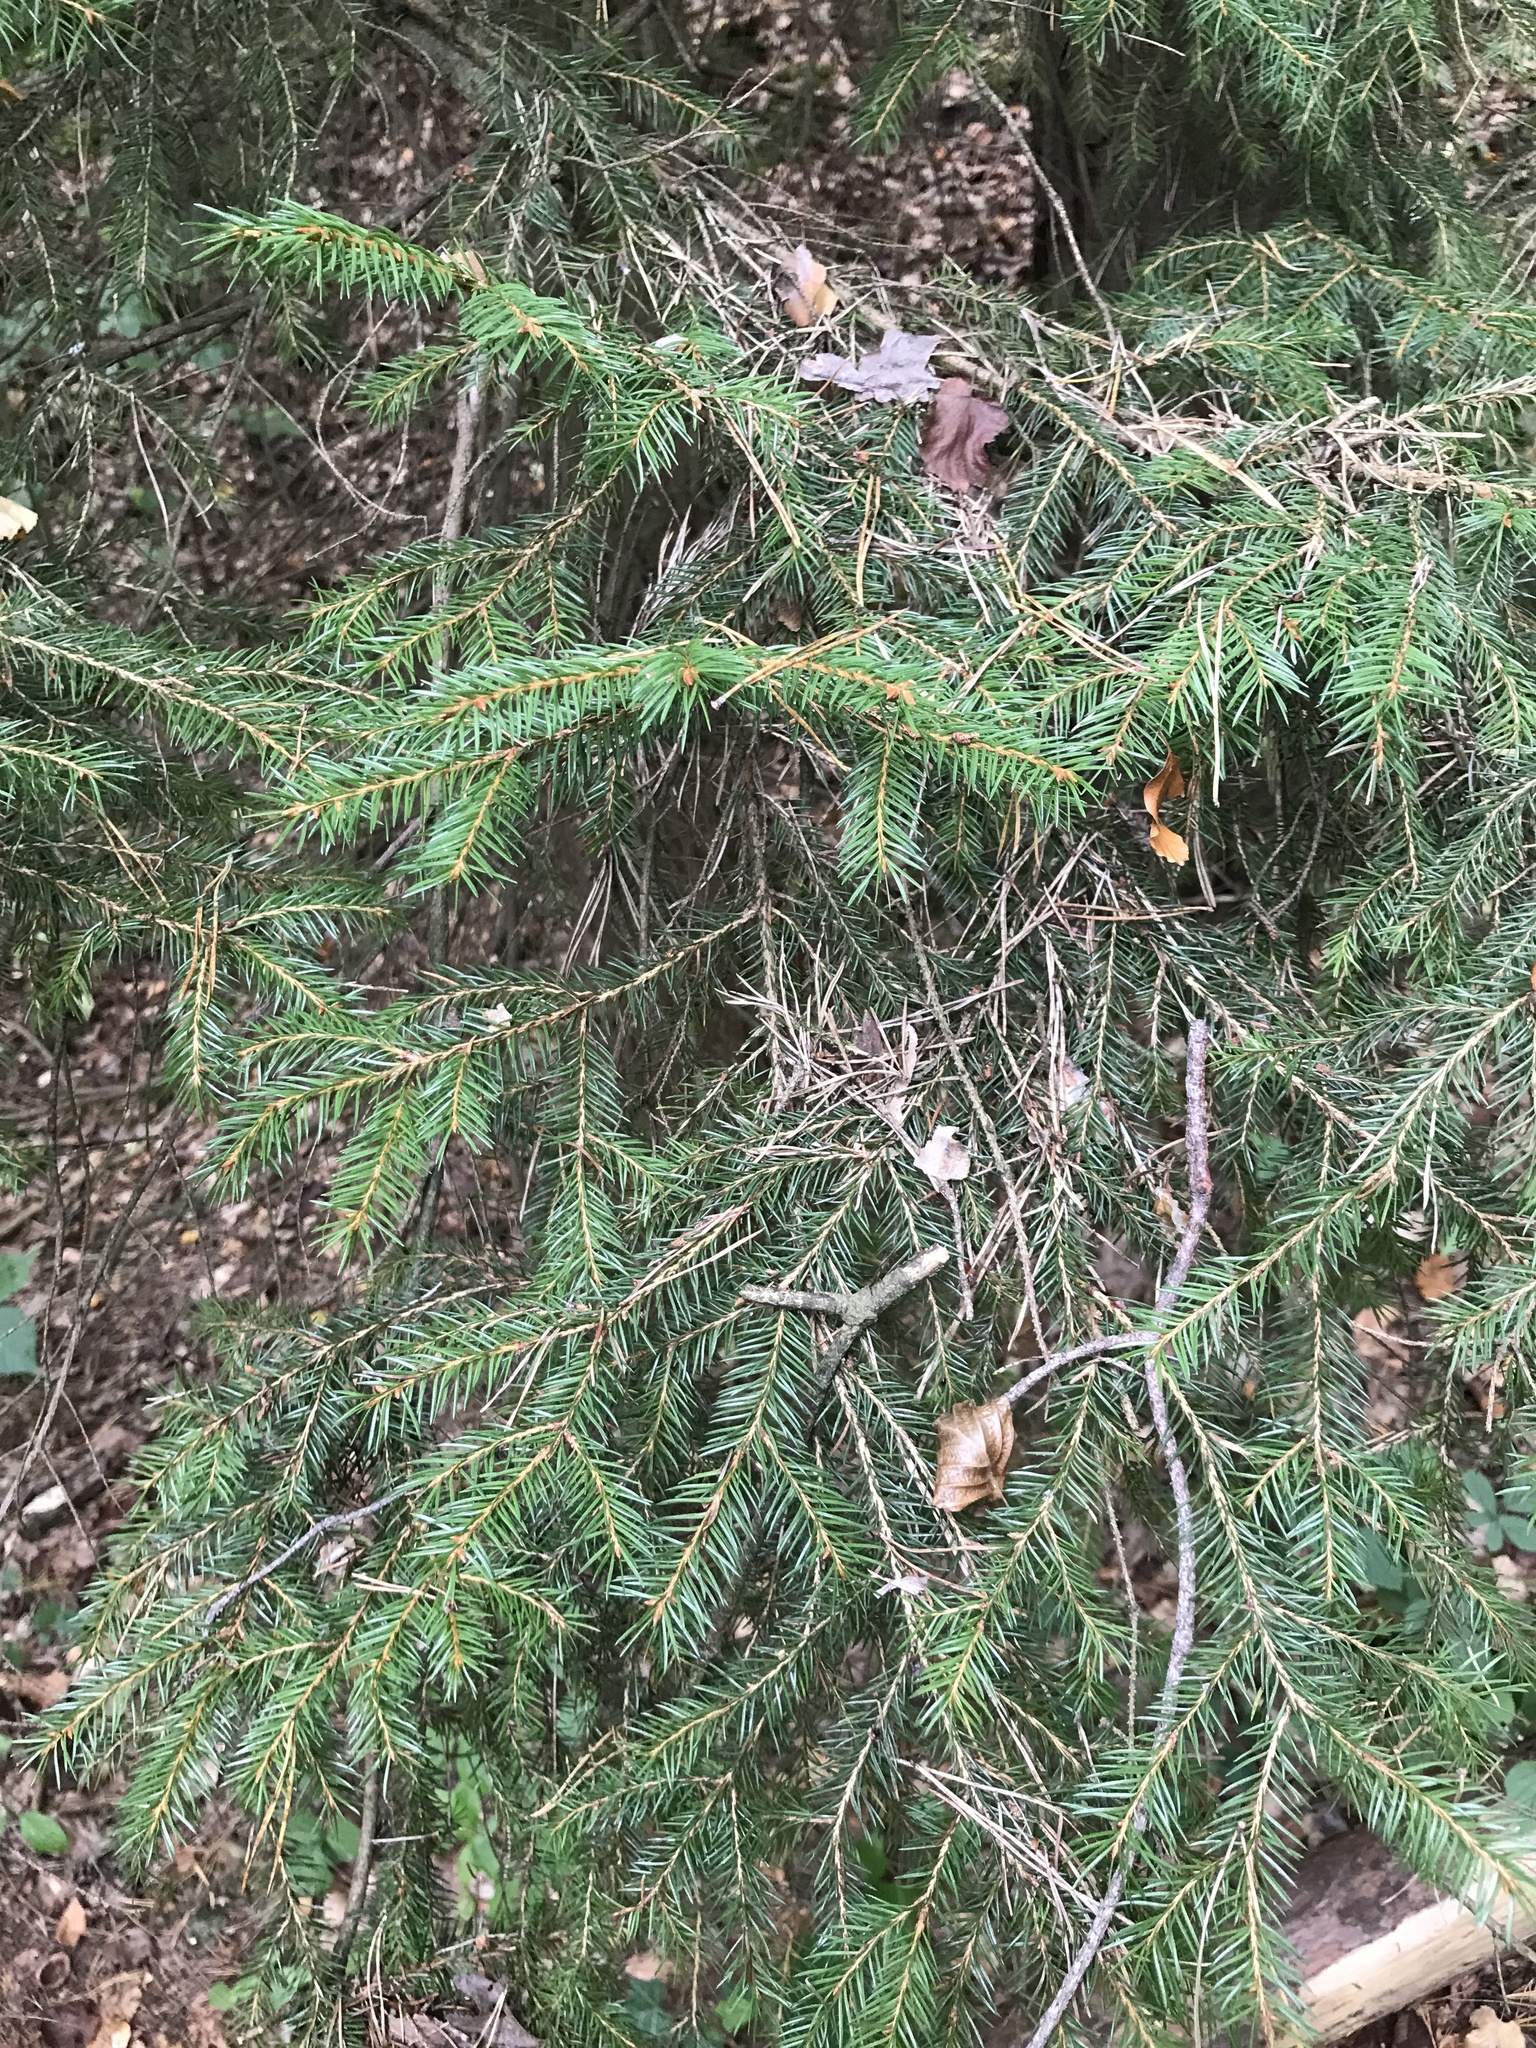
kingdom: Plantae
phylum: Tracheophyta
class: Pinopsida
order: Pinales
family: Pinaceae
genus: Picea
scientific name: Picea abies
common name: Norway spruce
